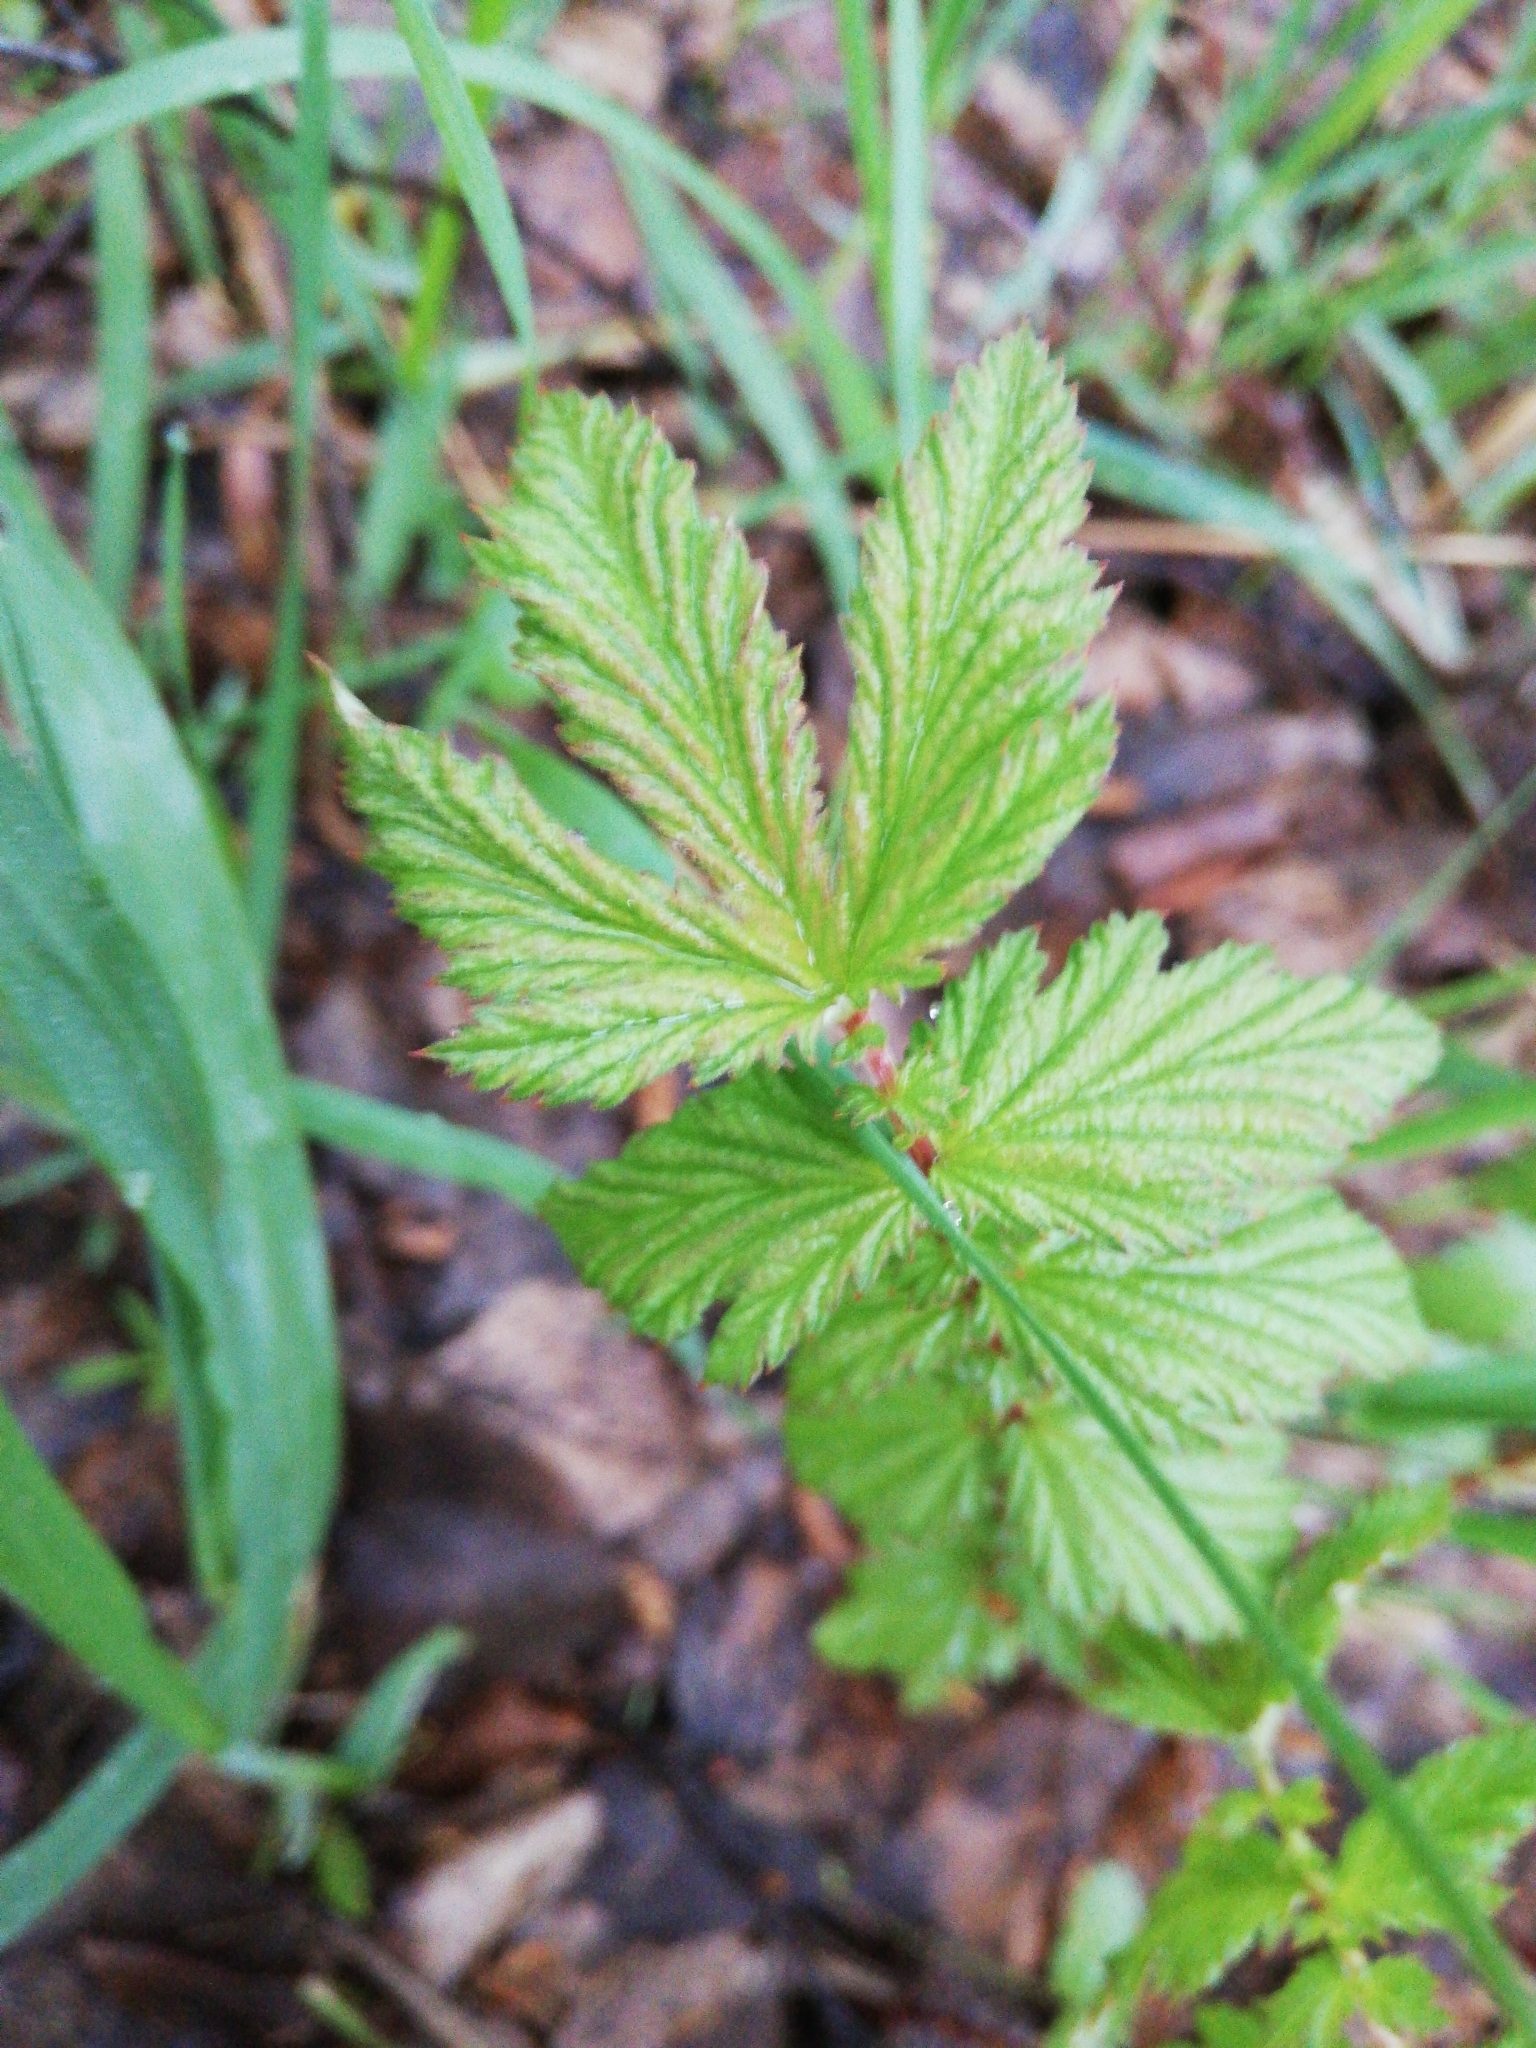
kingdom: Plantae
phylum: Tracheophyta
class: Magnoliopsida
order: Rosales
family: Rosaceae
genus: Filipendula
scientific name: Filipendula ulmaria
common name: Meadowsweet
